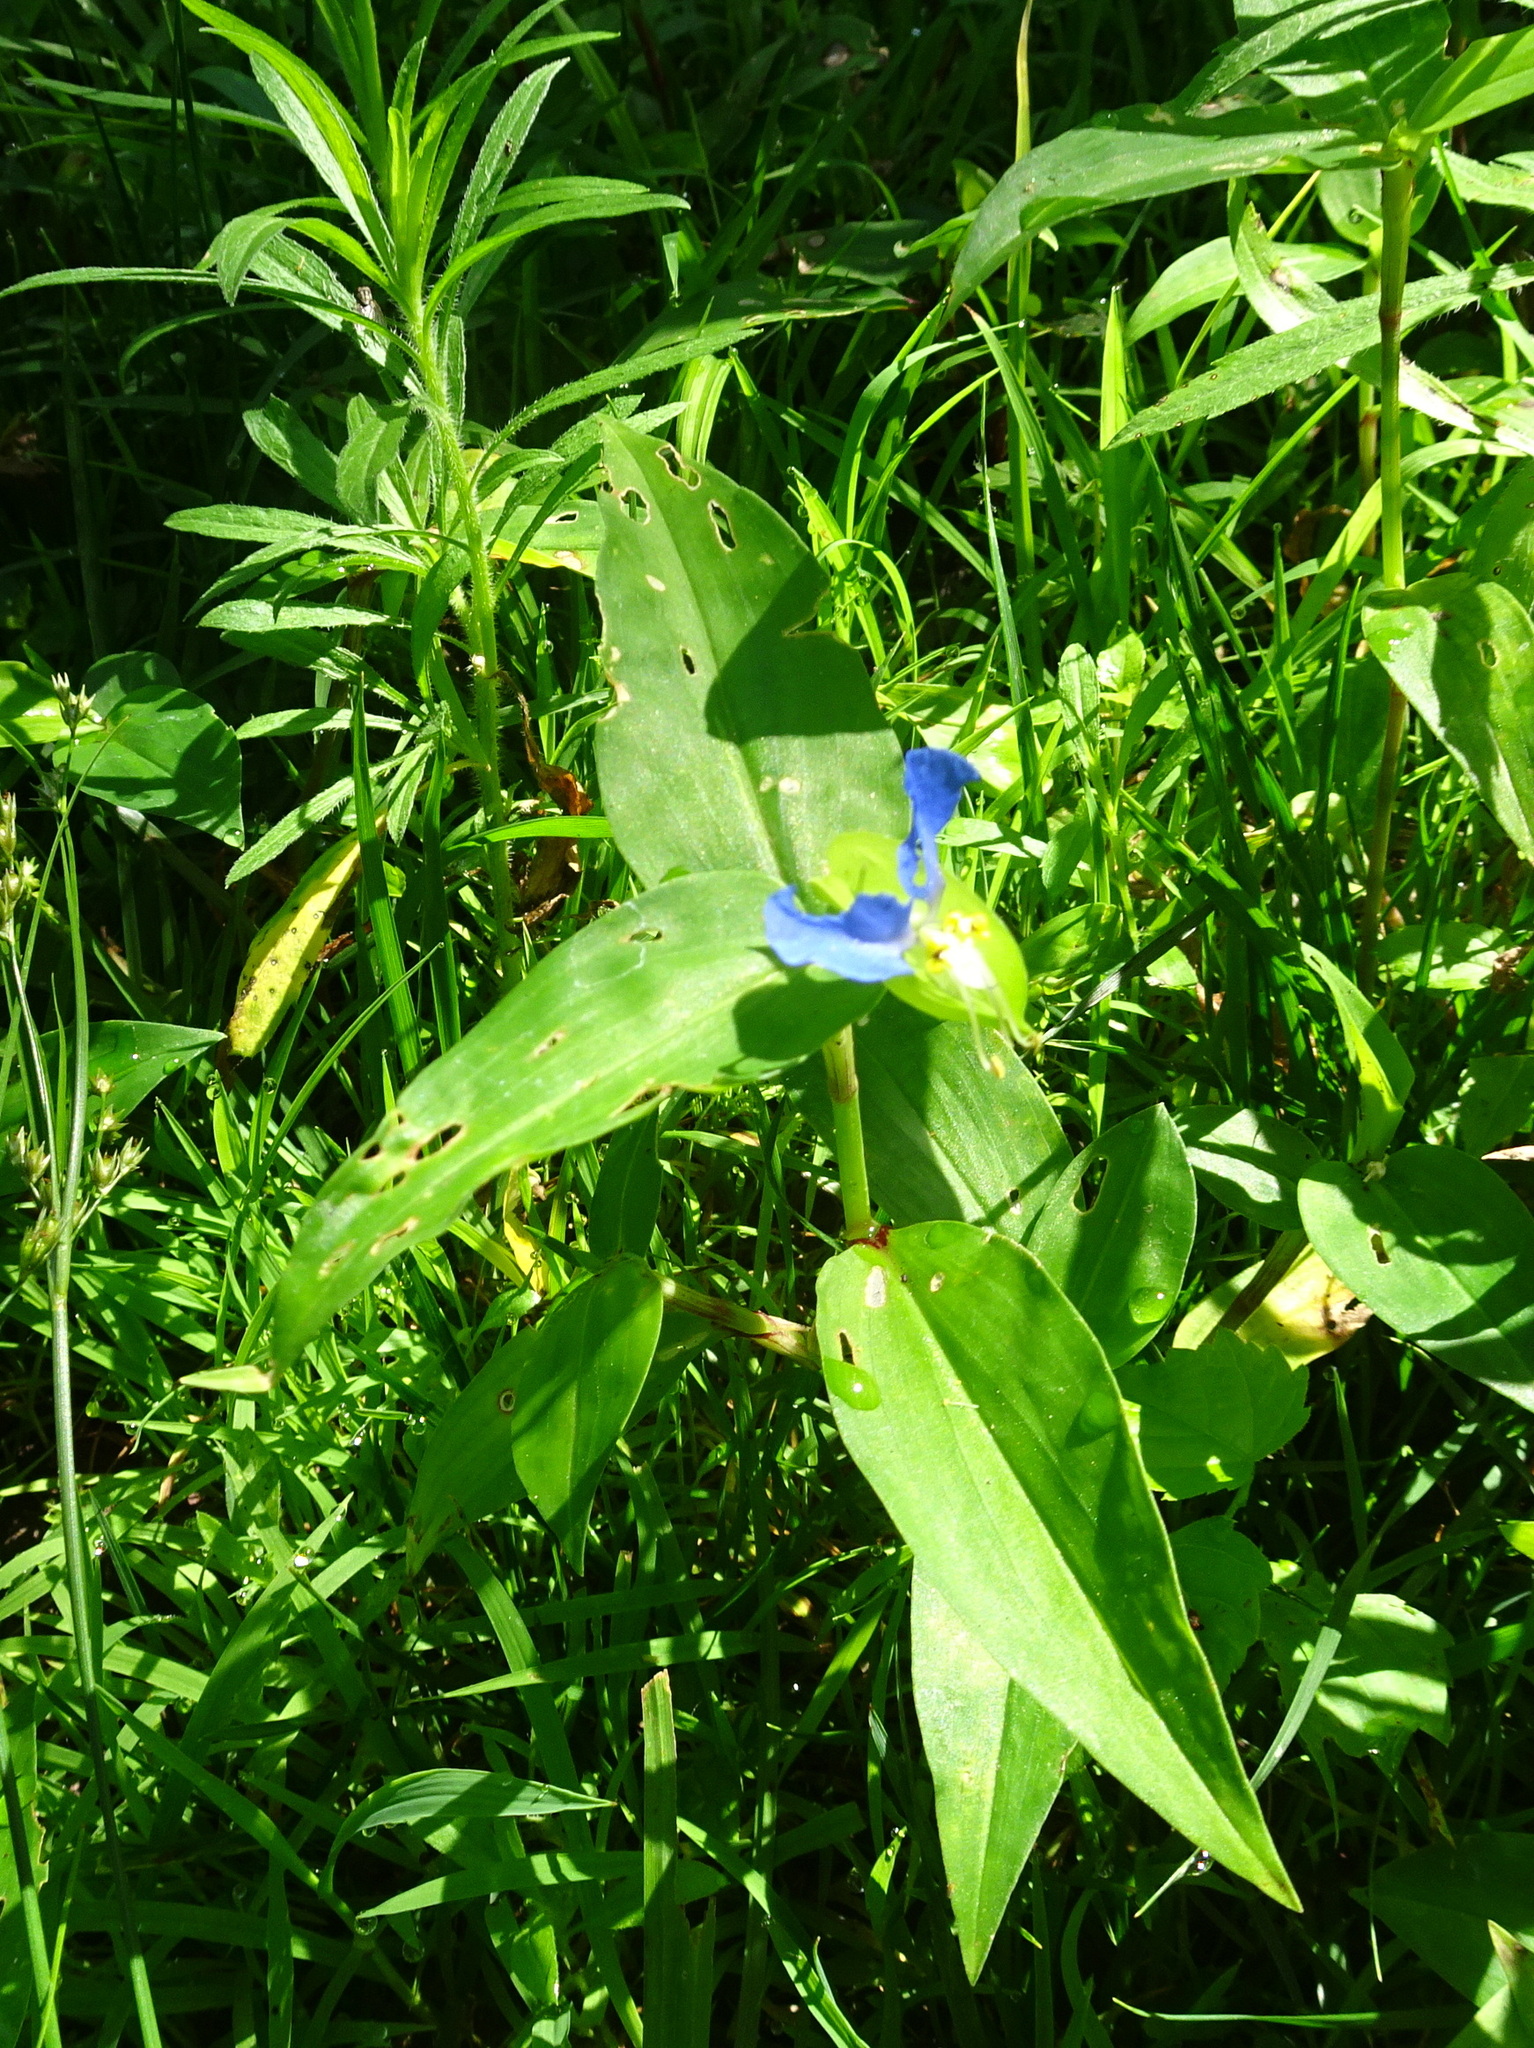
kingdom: Plantae
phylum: Tracheophyta
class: Liliopsida
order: Commelinales
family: Commelinaceae
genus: Commelina
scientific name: Commelina communis
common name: Asiatic dayflower
